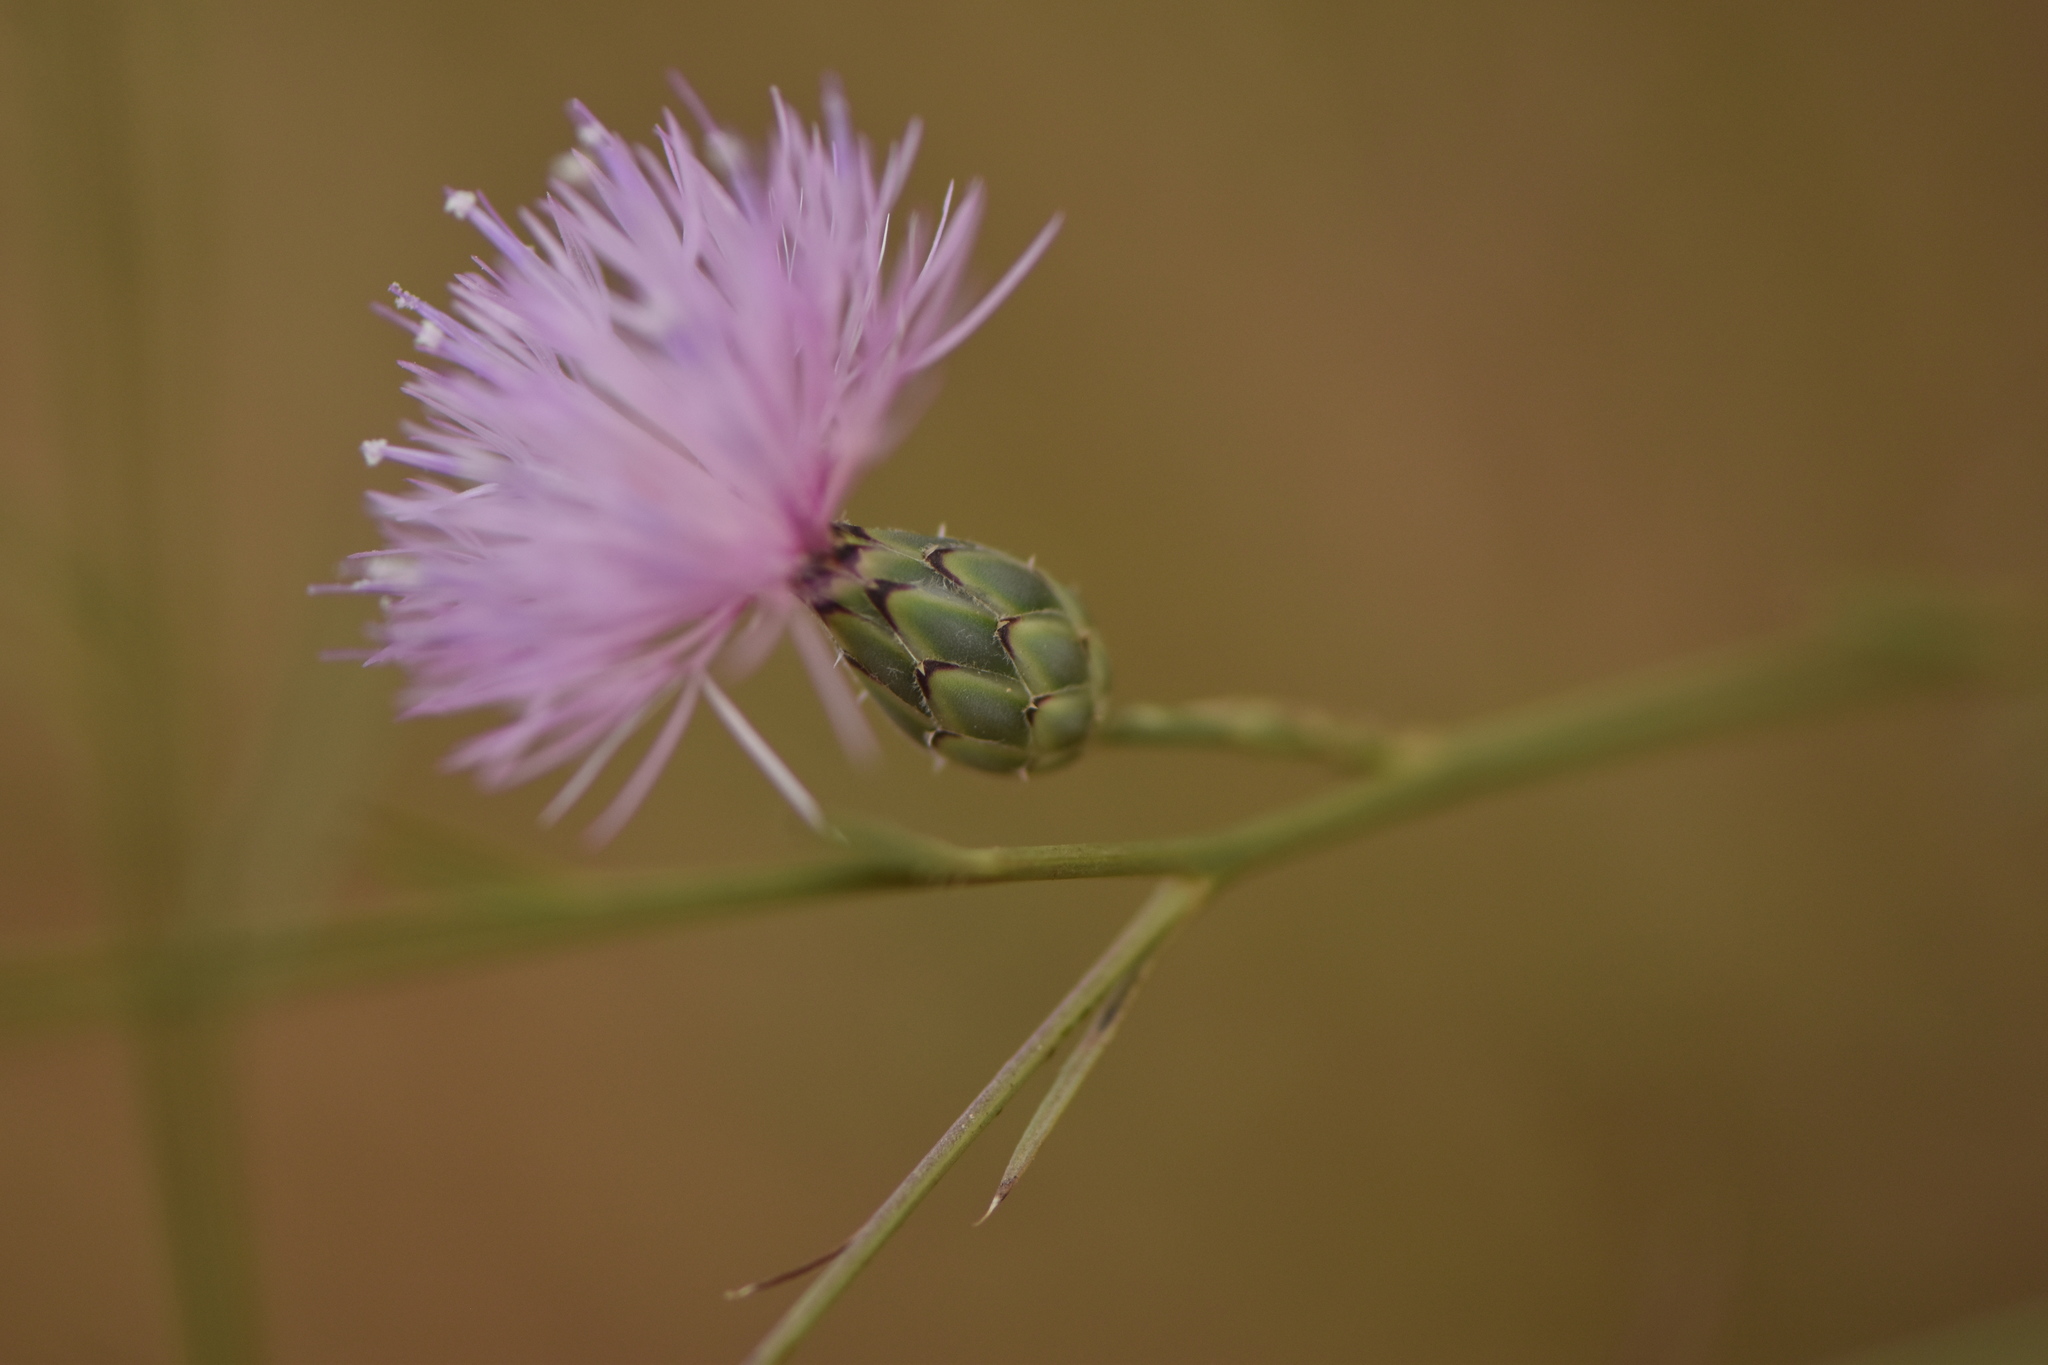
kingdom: Plantae
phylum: Tracheophyta
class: Magnoliopsida
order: Asterales
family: Asteraceae
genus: Mantisalca
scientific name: Mantisalca salmantica
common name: Dagger flower
